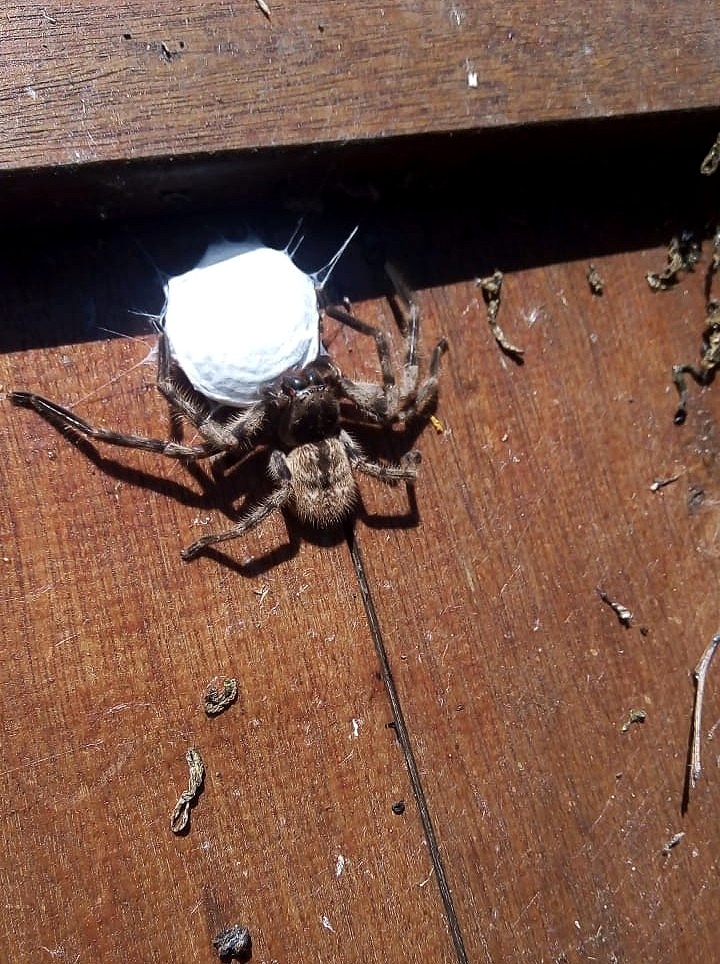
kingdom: Animalia
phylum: Arthropoda
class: Arachnida
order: Araneae
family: Sparassidae
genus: Polybetes
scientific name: Polybetes pythagoricus
